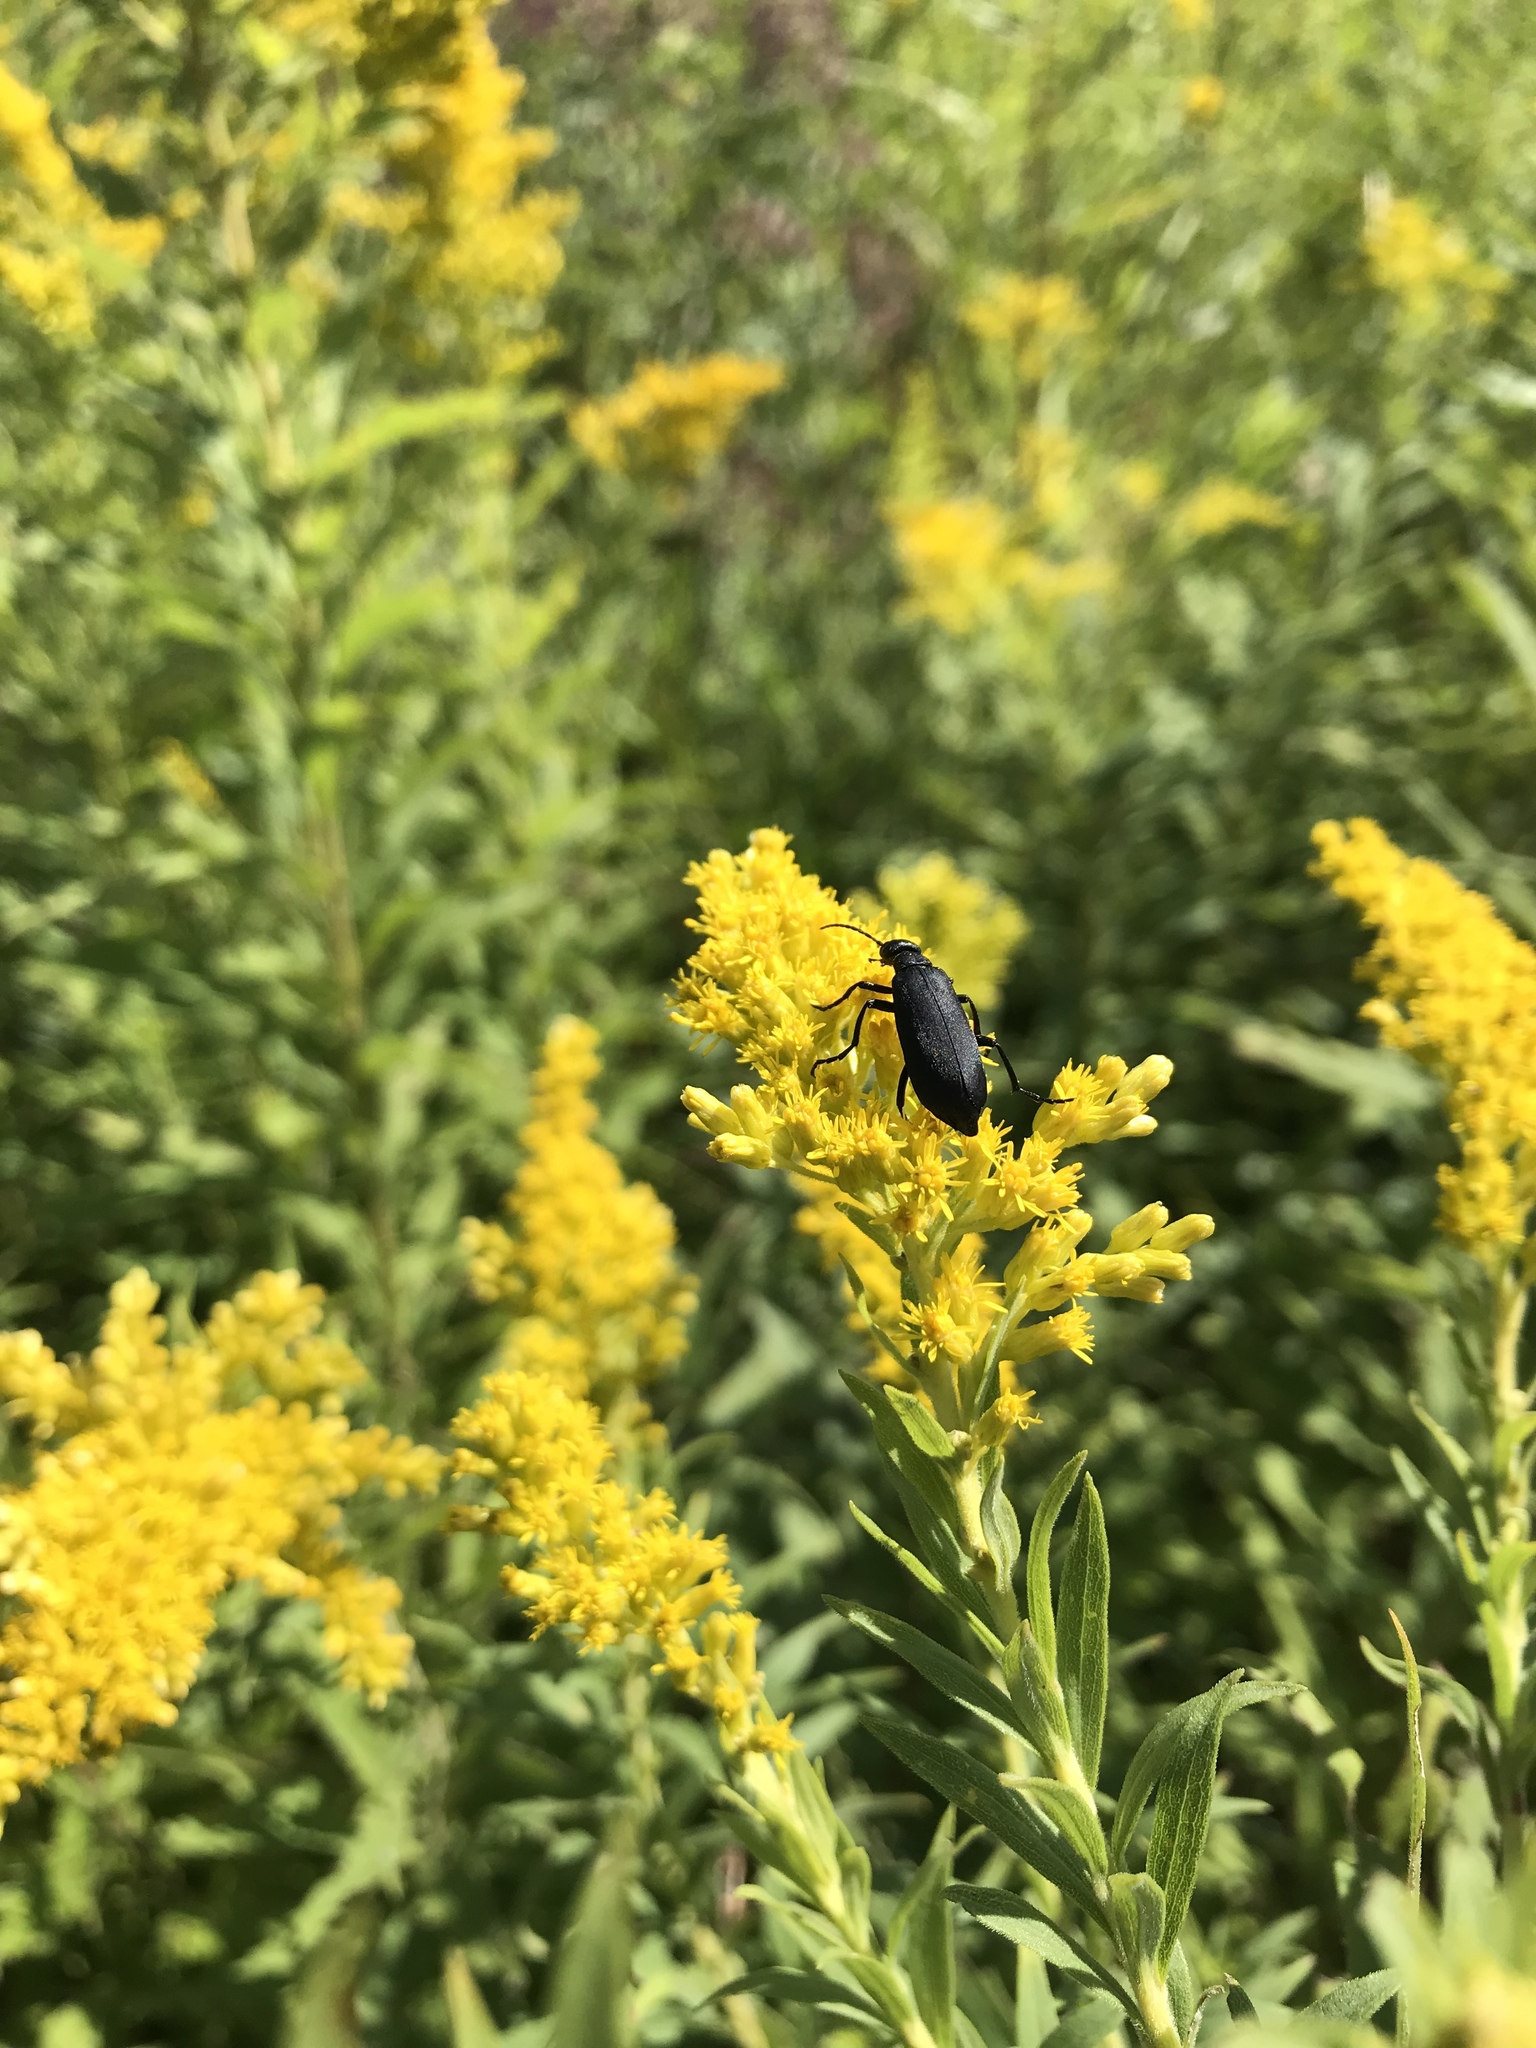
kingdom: Animalia
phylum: Arthropoda
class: Insecta
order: Coleoptera
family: Meloidae
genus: Epicauta
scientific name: Epicauta pensylvanica
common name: Black blister beetle
